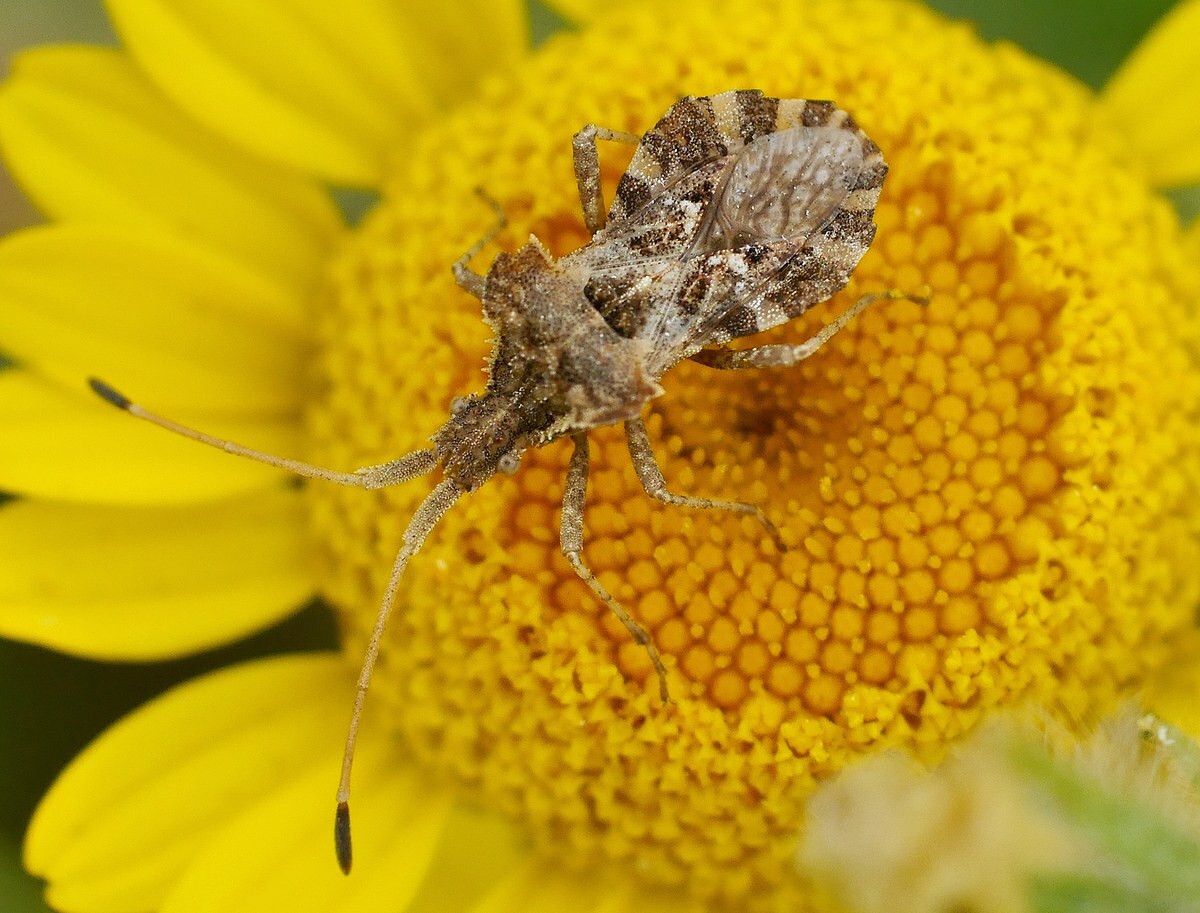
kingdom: Animalia
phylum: Arthropoda
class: Insecta
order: Hemiptera
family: Coreidae
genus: Centrocoris
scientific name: Centrocoris spiniger
